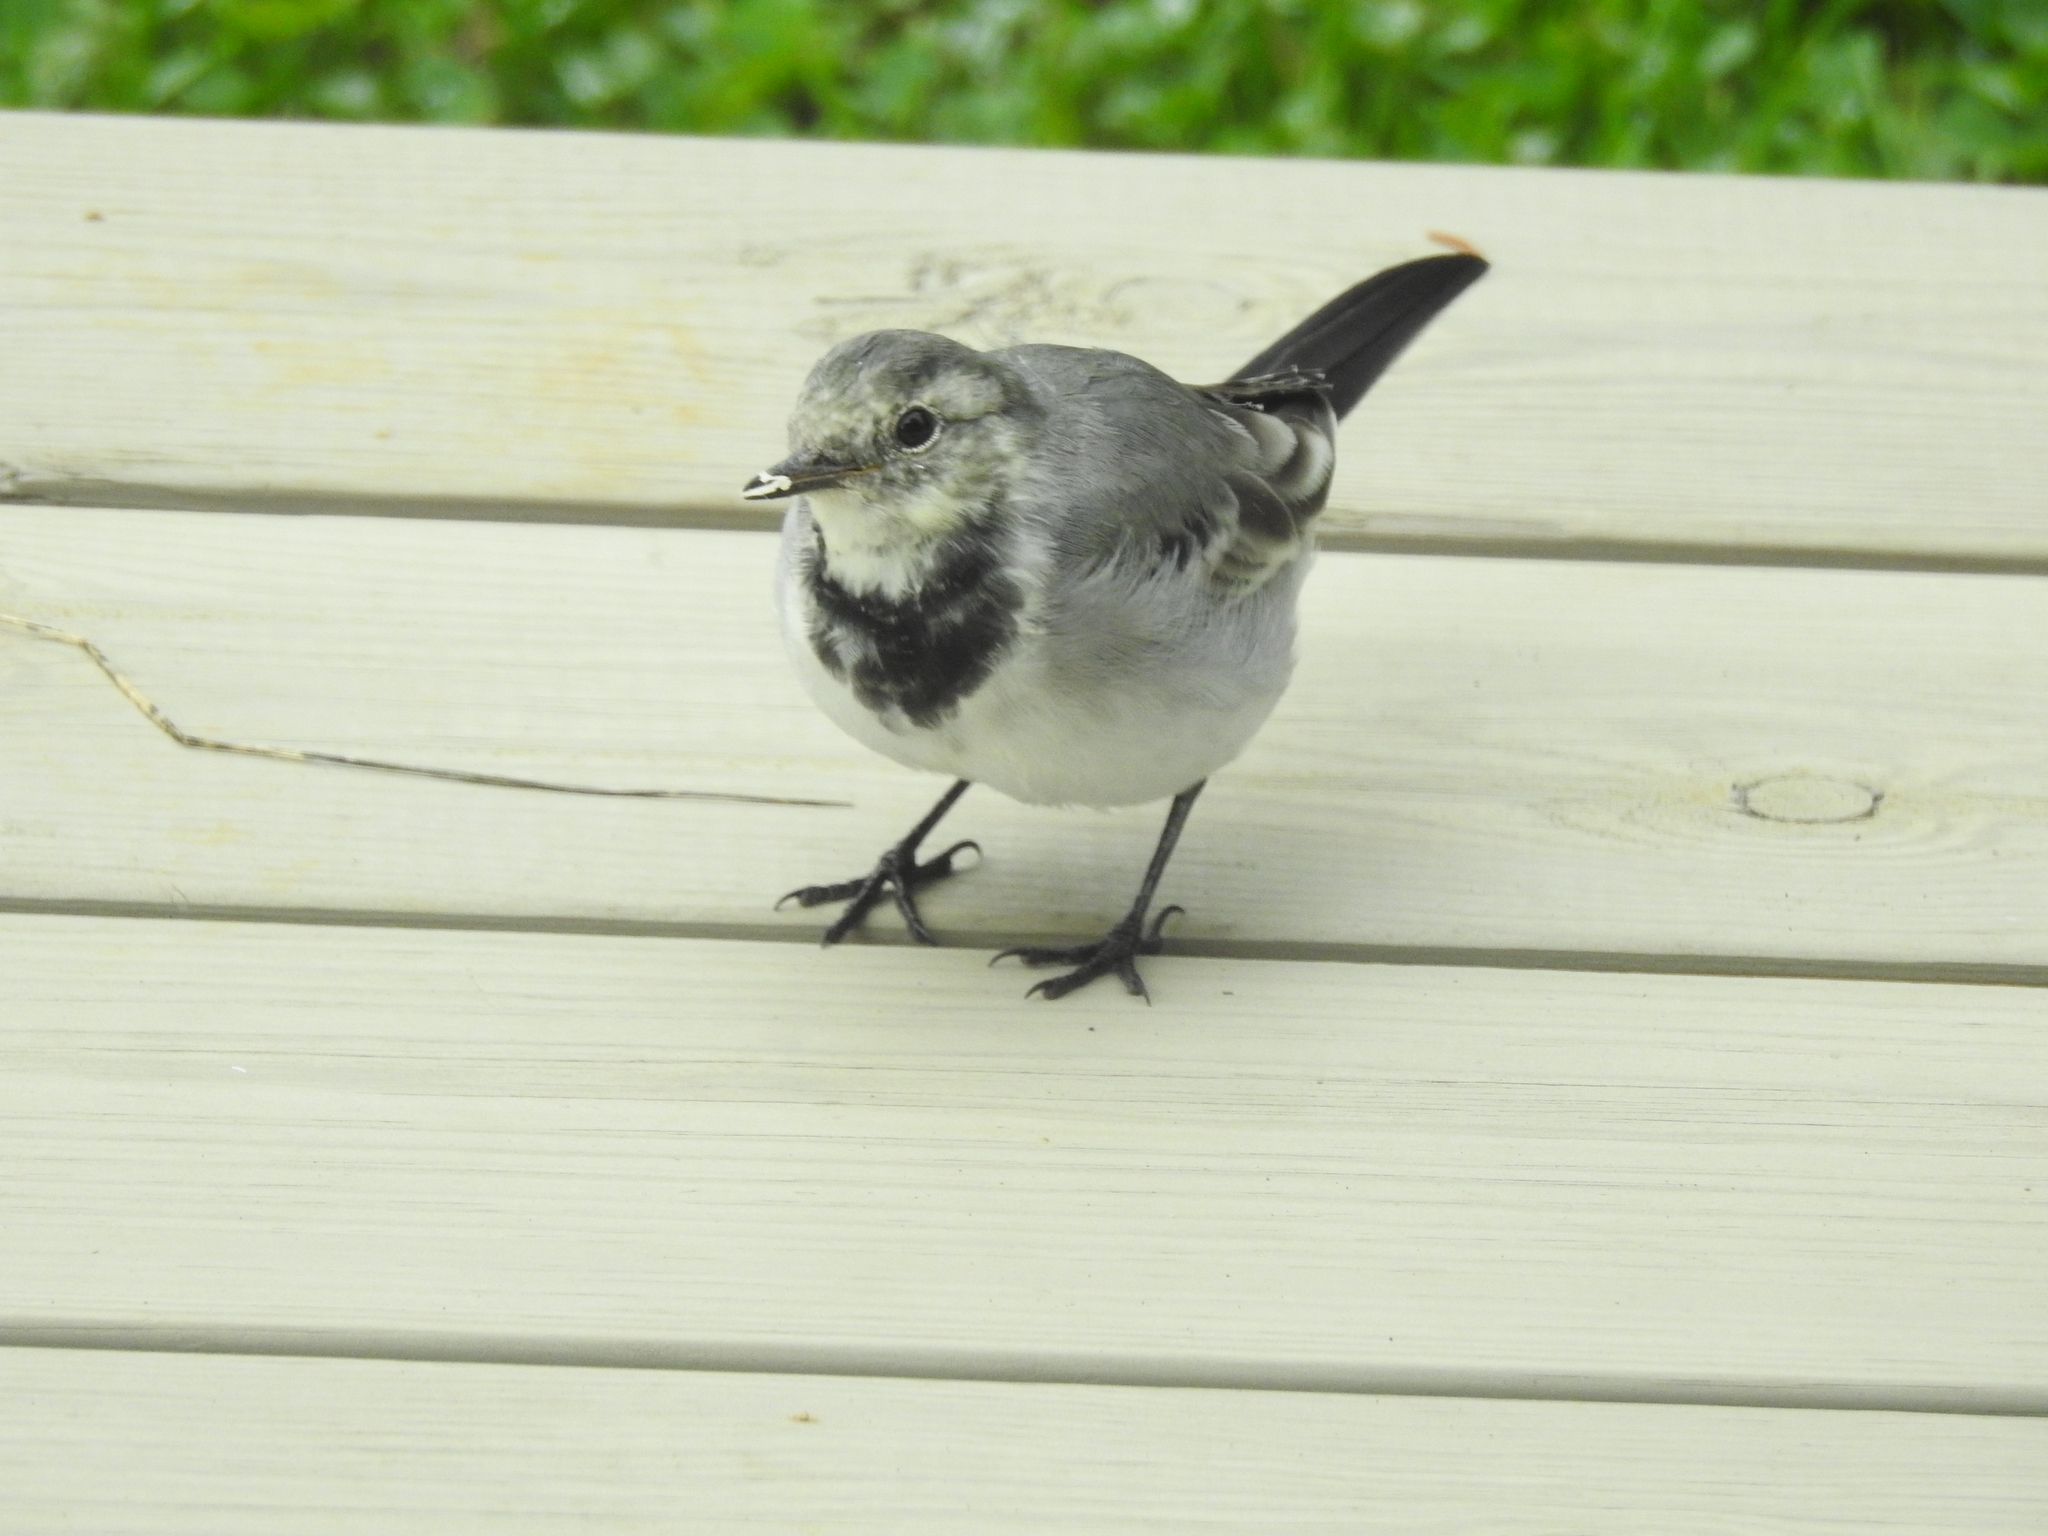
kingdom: Animalia
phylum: Chordata
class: Aves
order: Passeriformes
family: Motacillidae
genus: Motacilla
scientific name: Motacilla alba
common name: White wagtail
